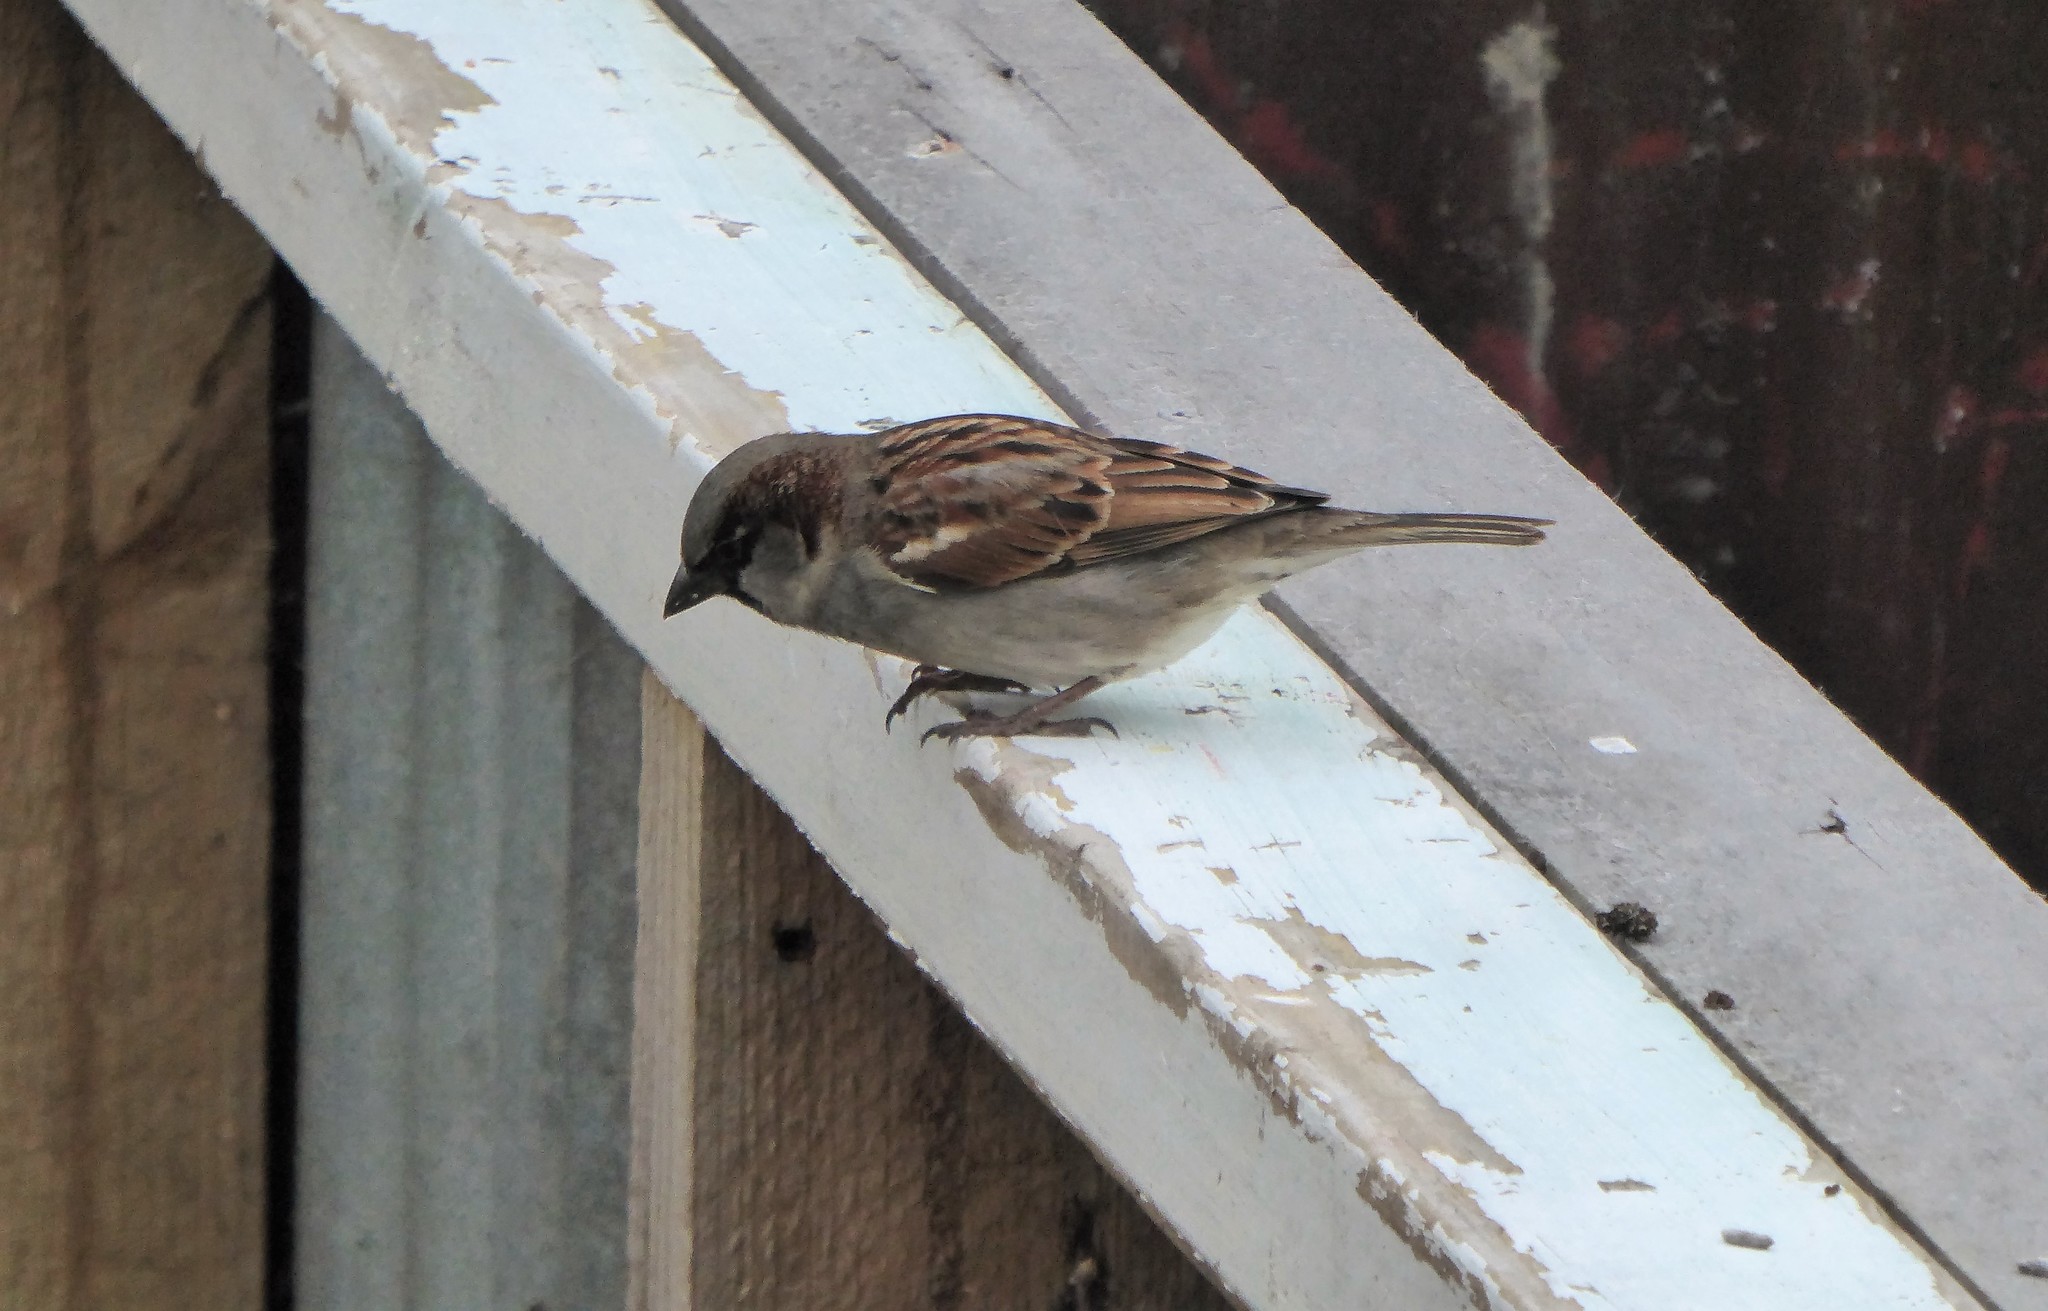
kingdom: Animalia
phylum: Chordata
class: Aves
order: Passeriformes
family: Passeridae
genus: Passer
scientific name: Passer domesticus
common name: House sparrow
